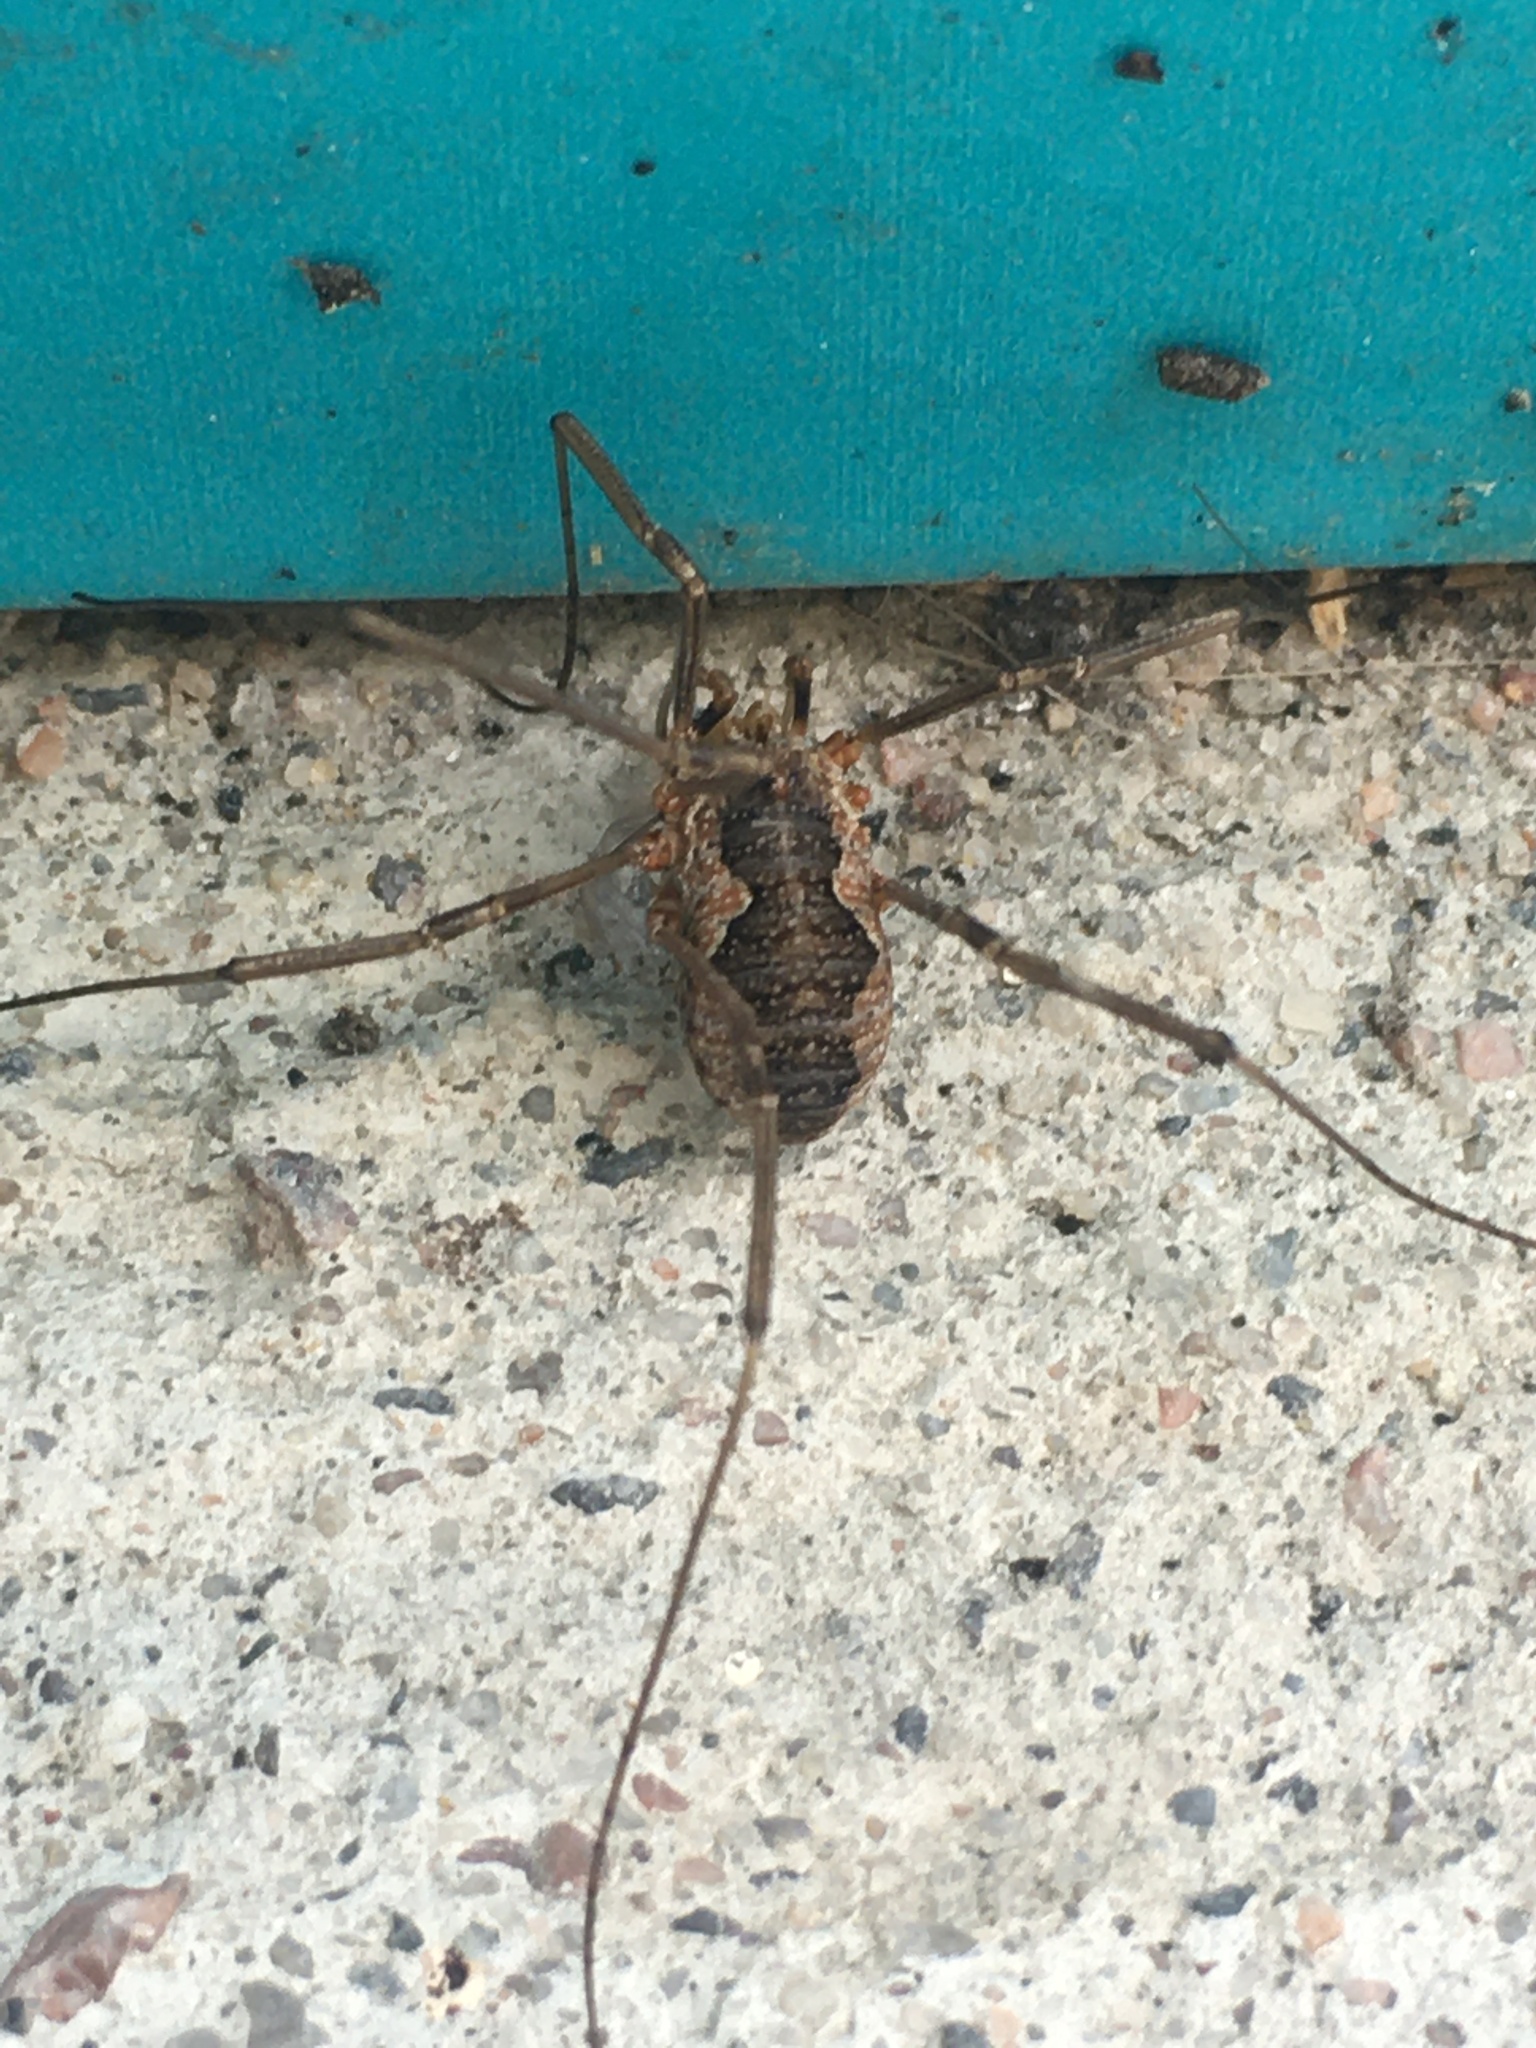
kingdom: Animalia
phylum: Arthropoda
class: Arachnida
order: Opiliones
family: Phalangiidae
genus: Phalangium
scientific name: Phalangium opilio
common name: Daddy longleg
